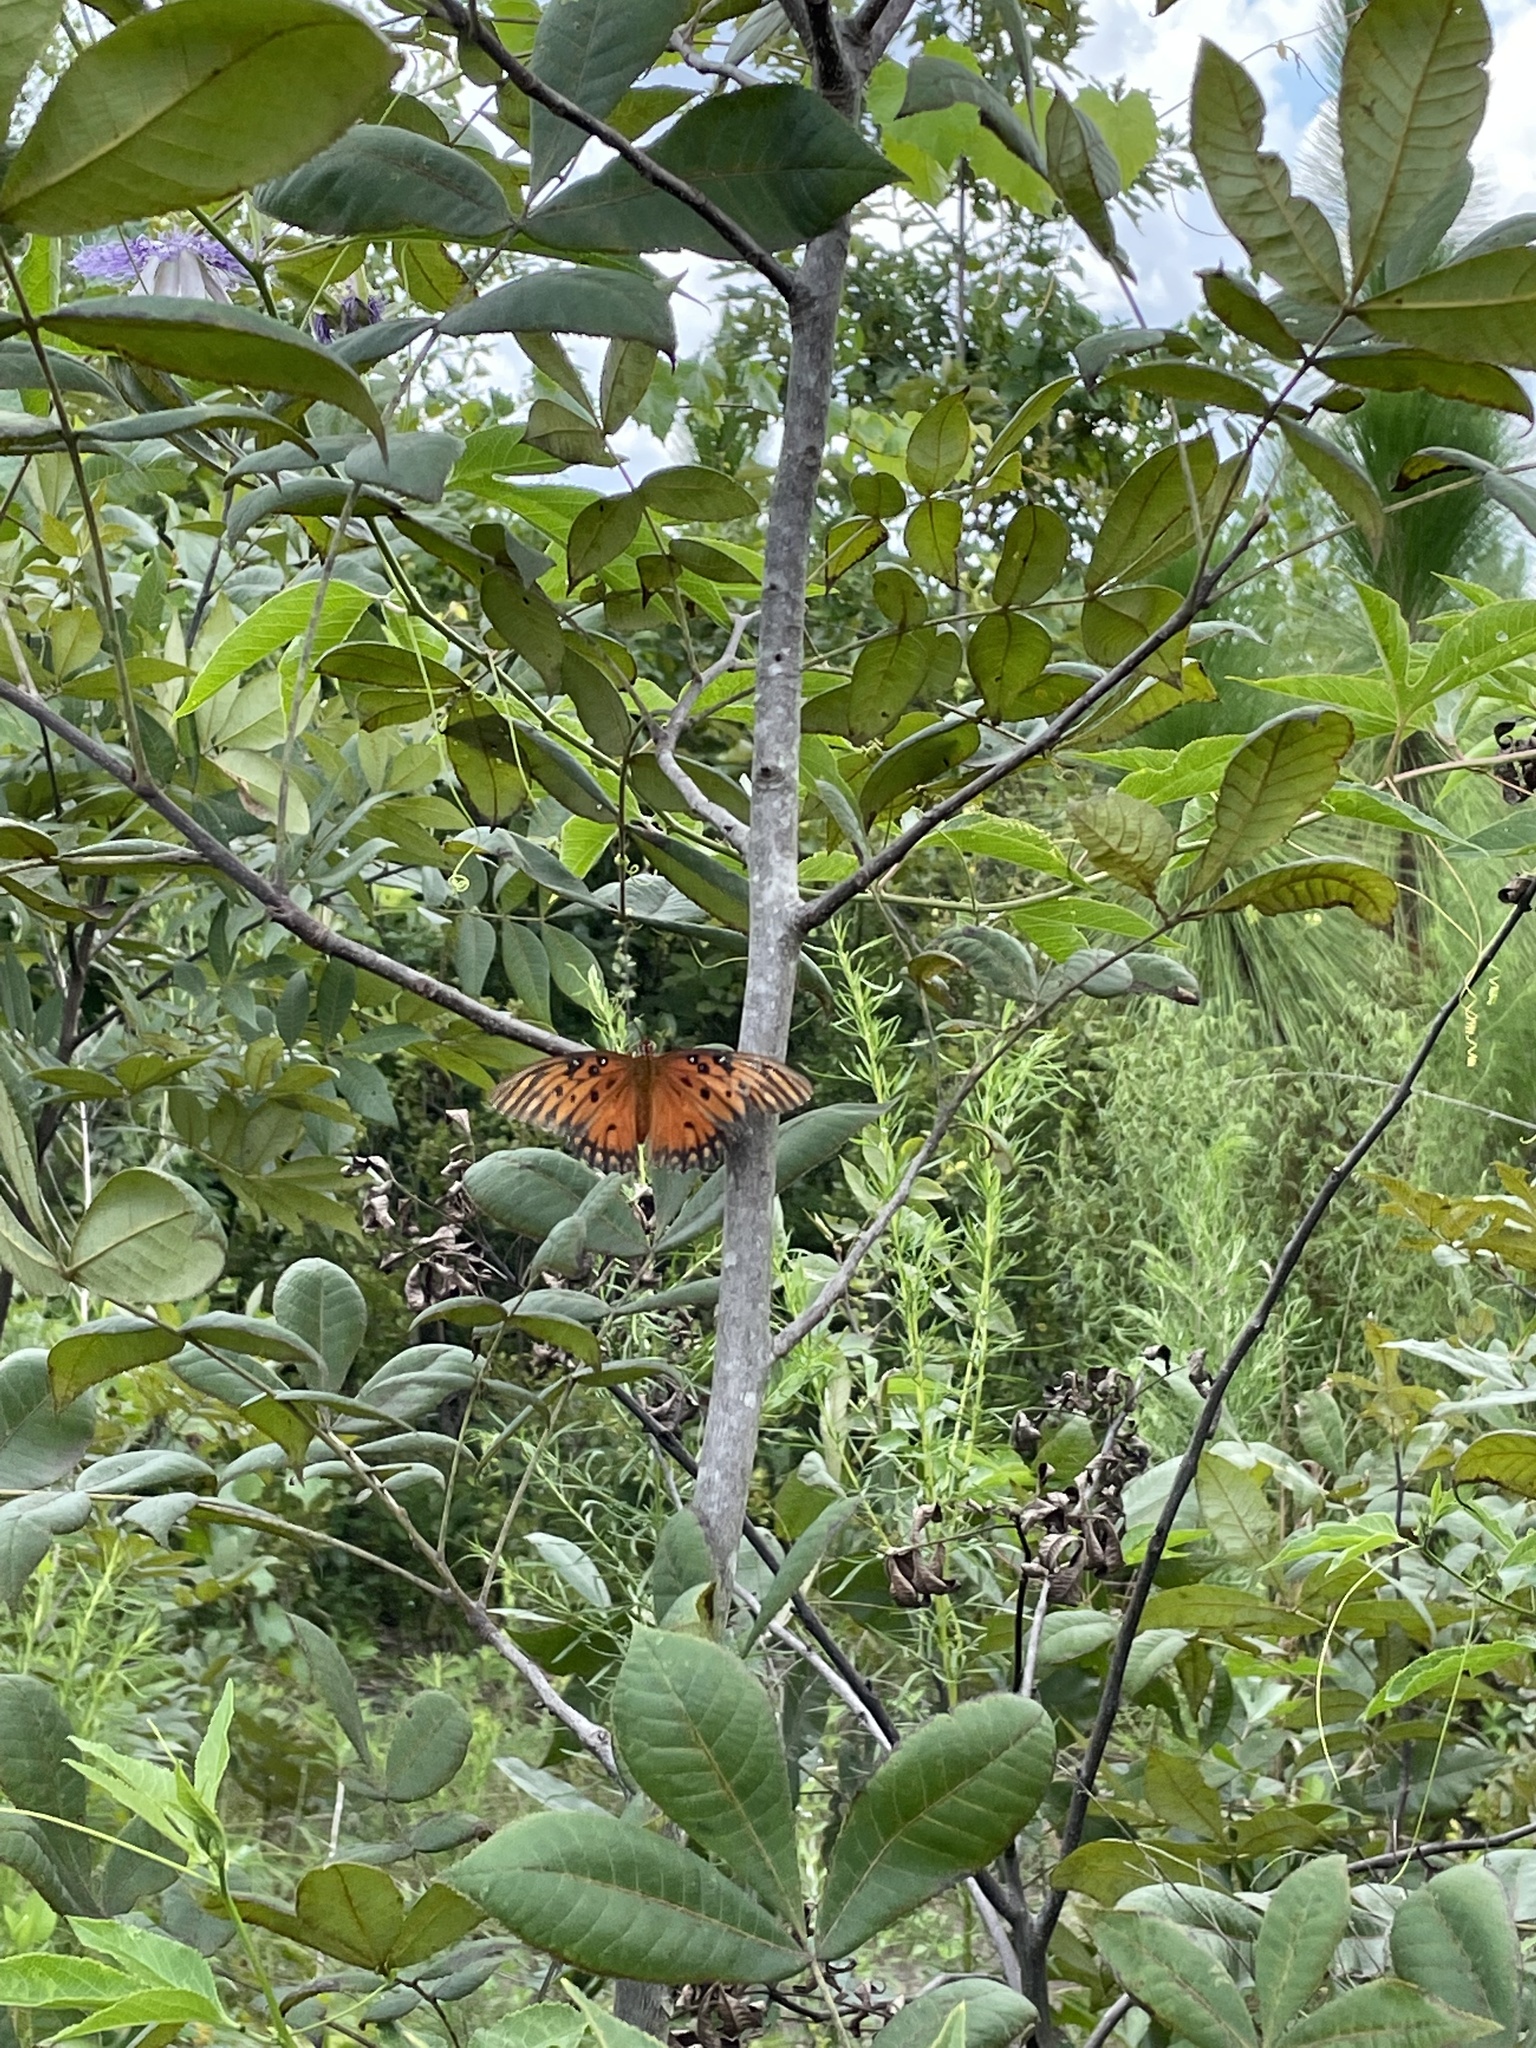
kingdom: Animalia
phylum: Arthropoda
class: Insecta
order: Lepidoptera
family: Nymphalidae
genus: Dione
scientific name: Dione vanillae
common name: Gulf fritillary
